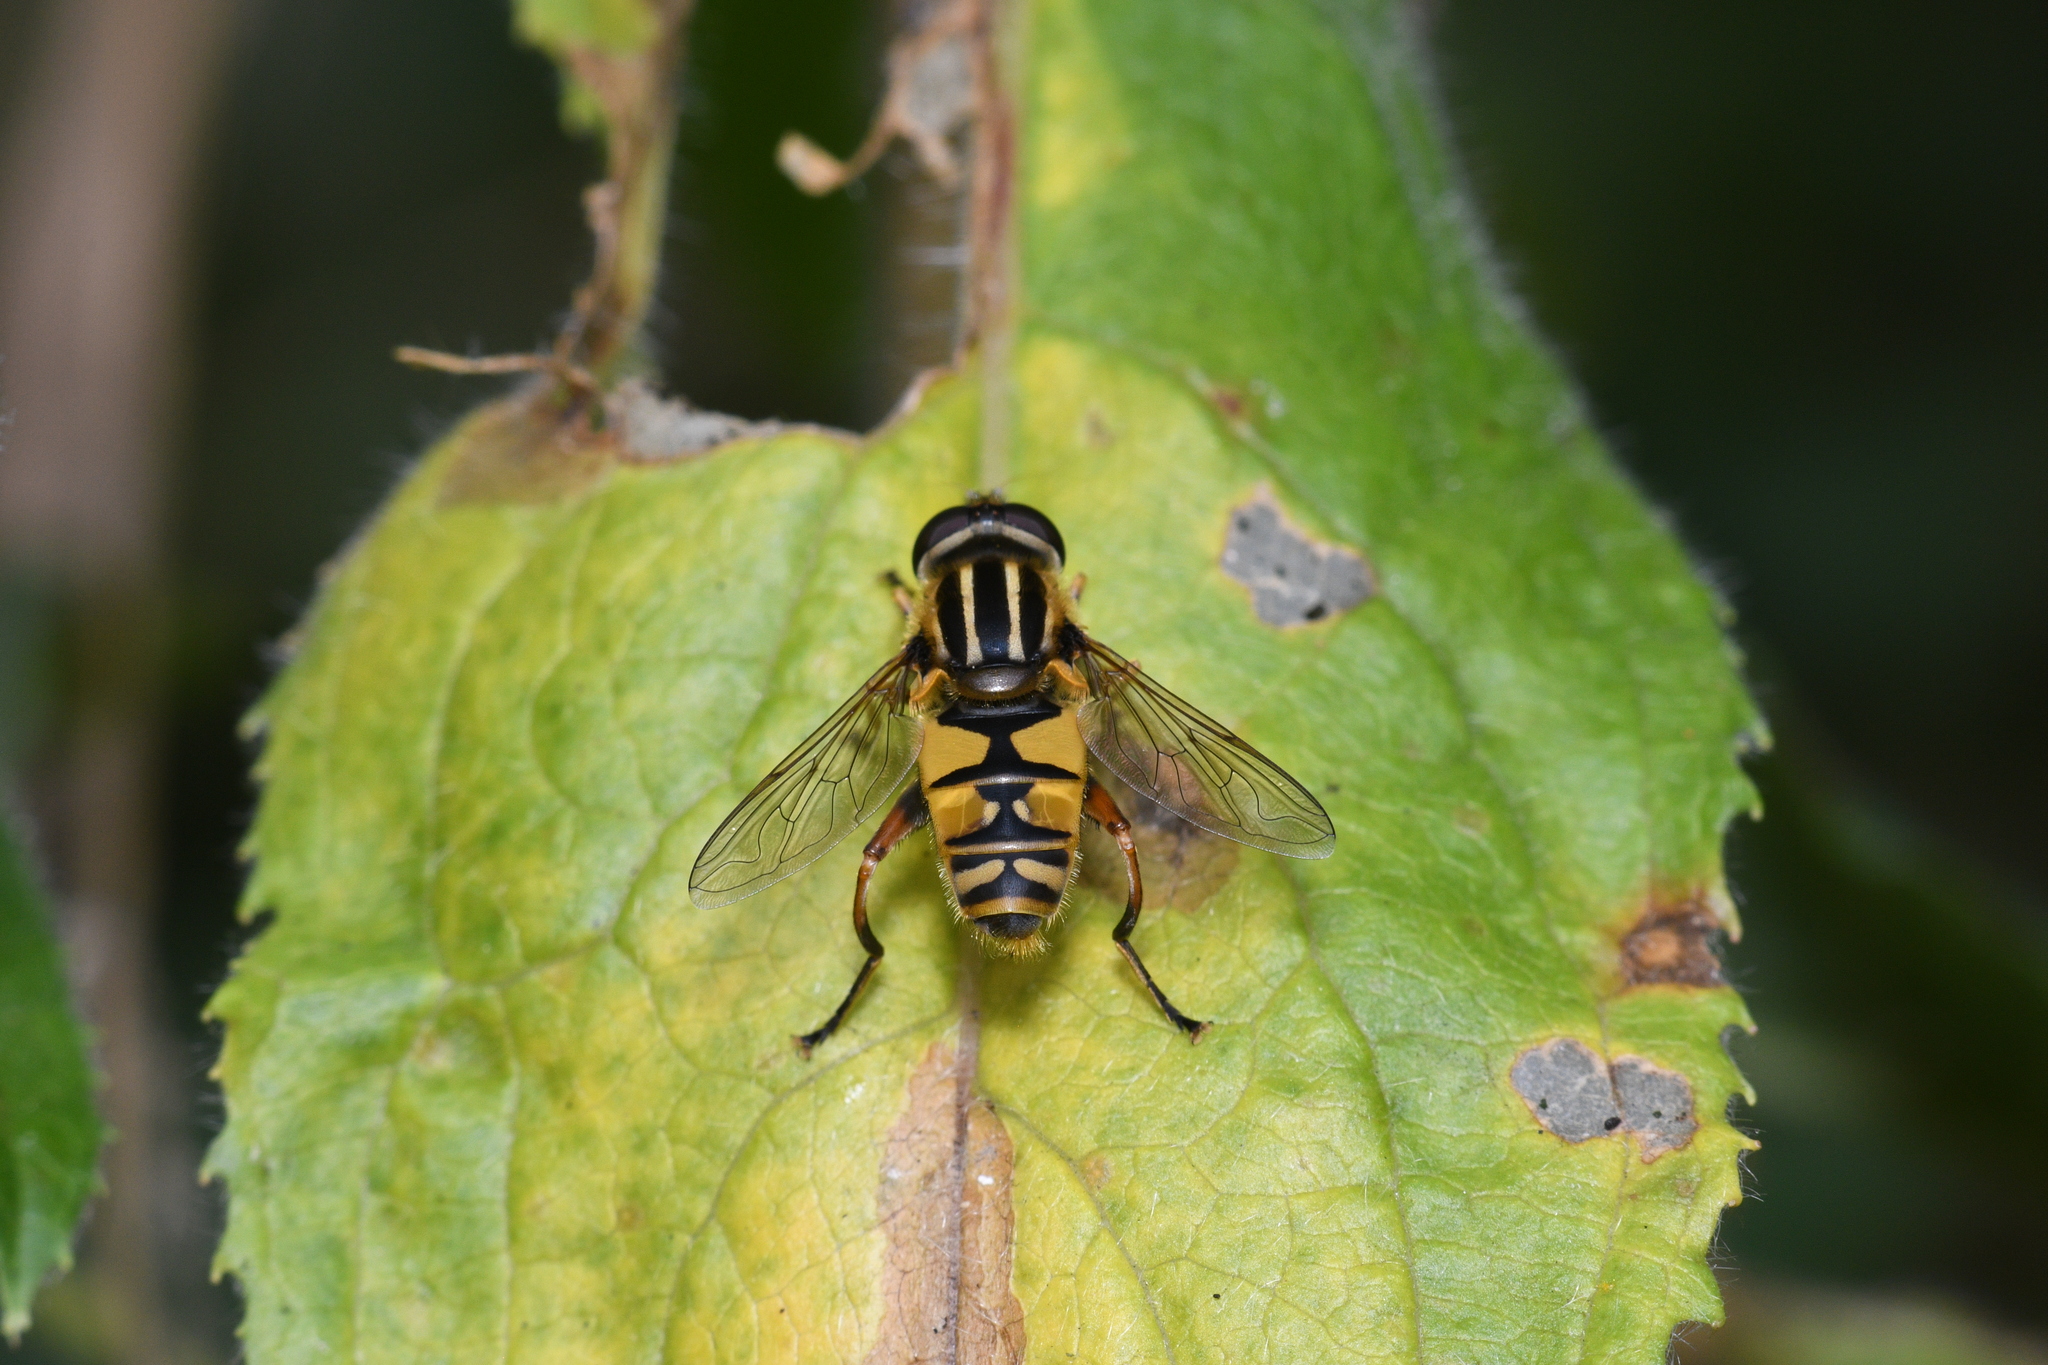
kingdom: Animalia
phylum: Arthropoda
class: Insecta
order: Diptera
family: Syrphidae
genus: Helophilus
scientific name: Helophilus pendulus
